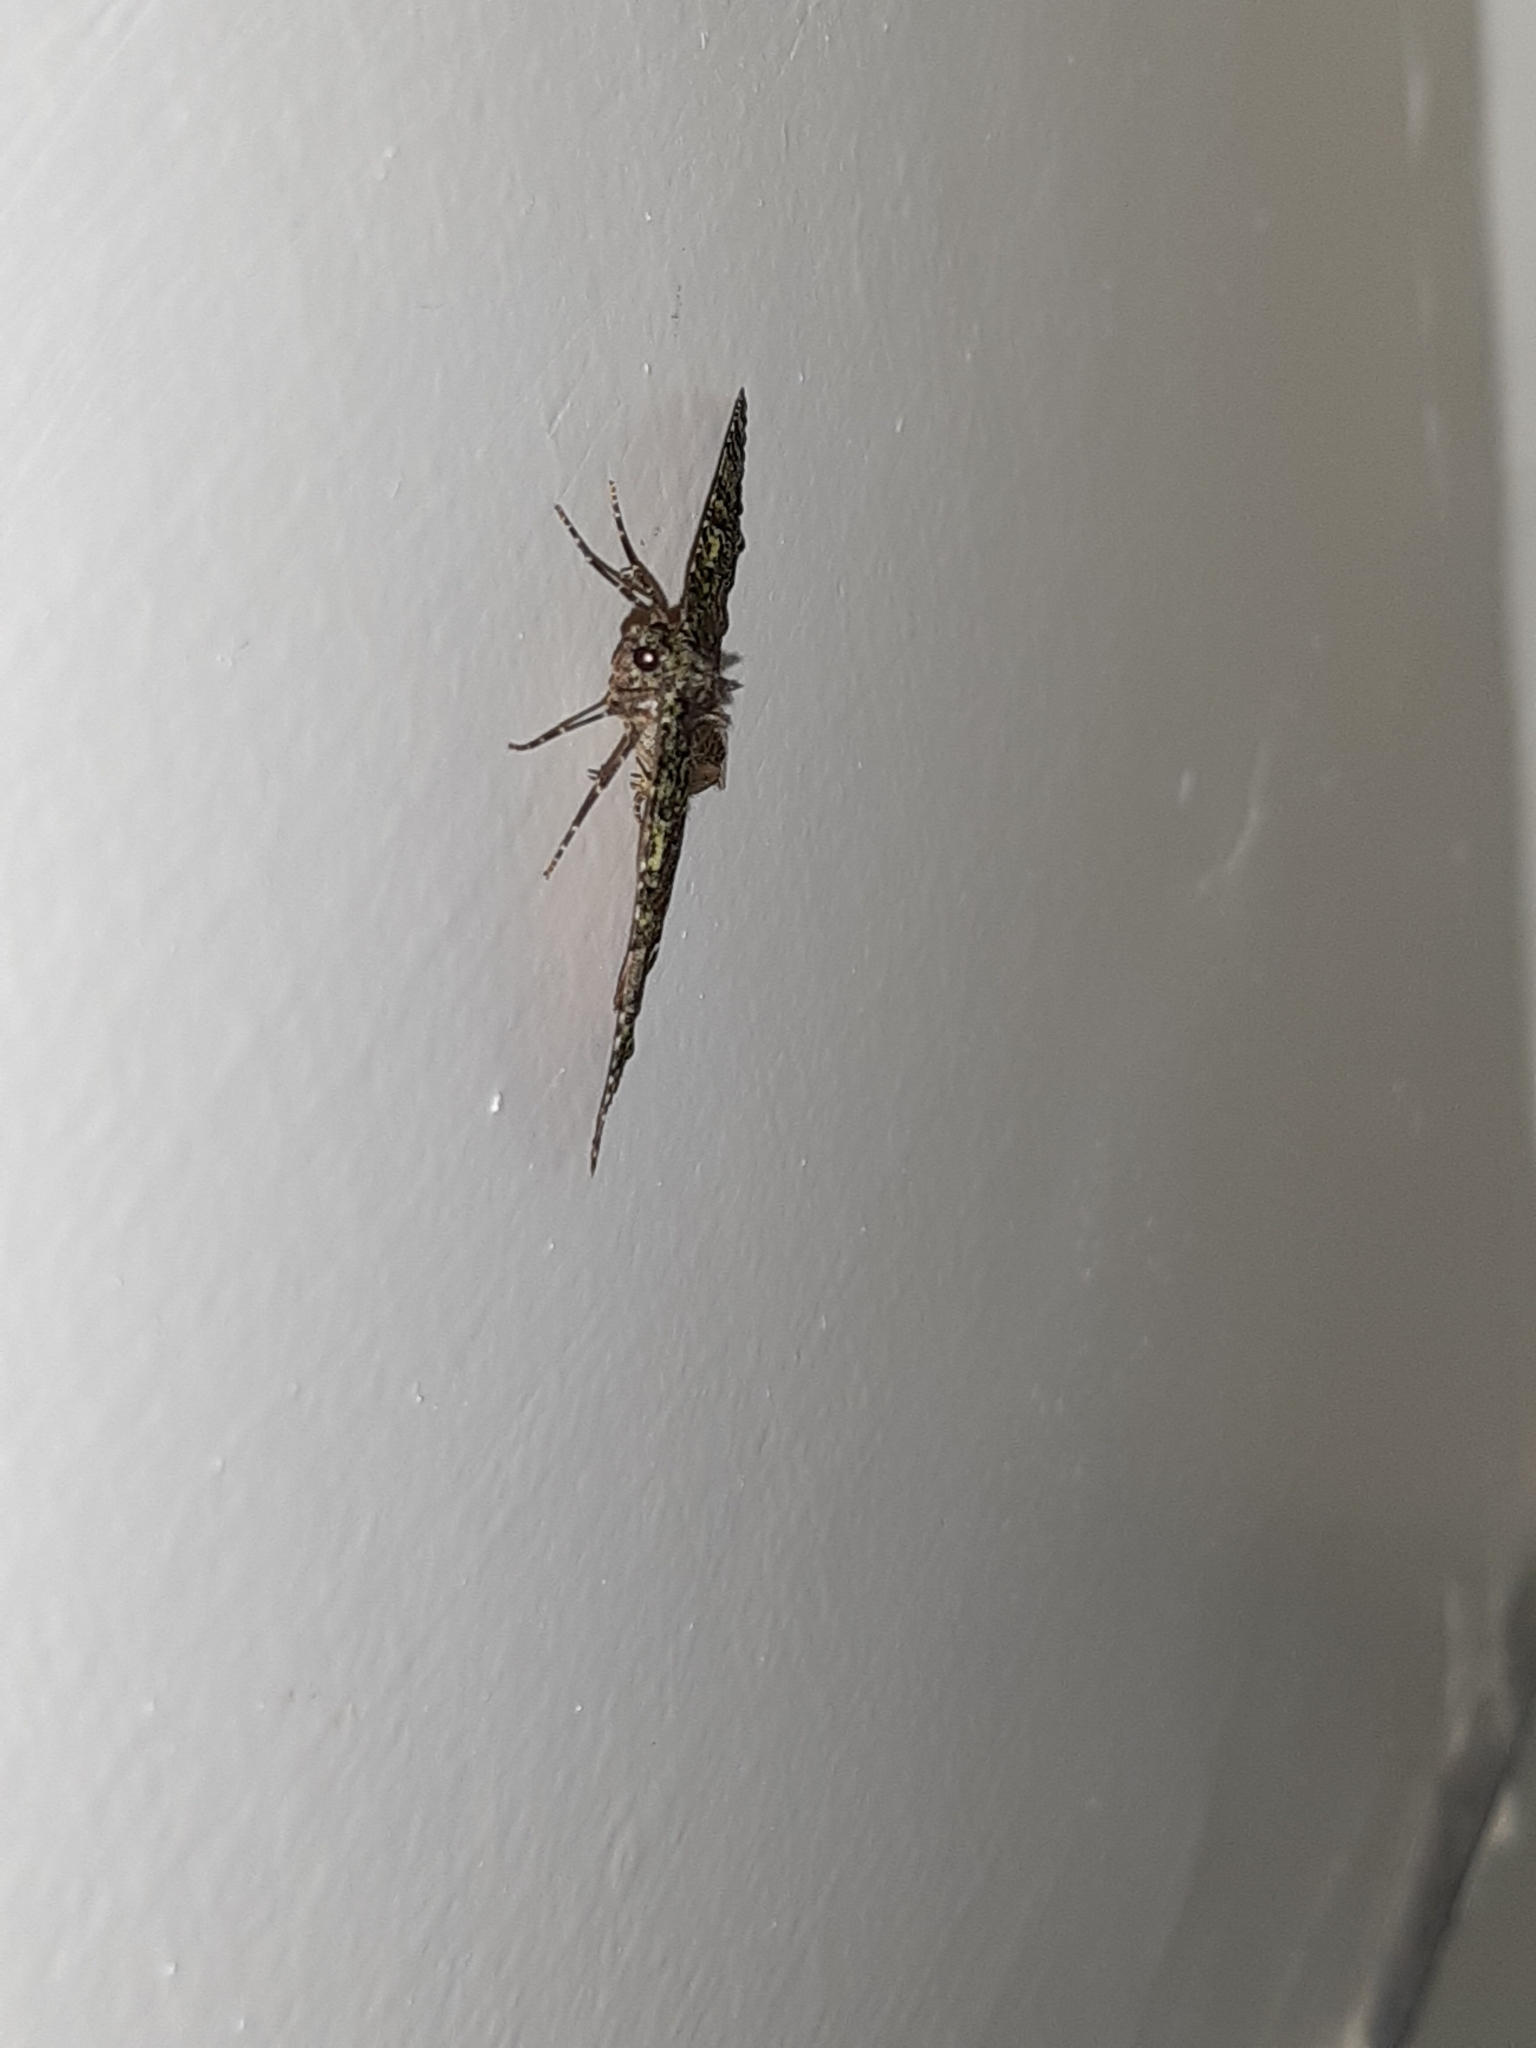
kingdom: Animalia
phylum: Arthropoda
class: Insecta
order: Lepidoptera
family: Geometridae
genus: Austrocidaria
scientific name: Austrocidaria similata
